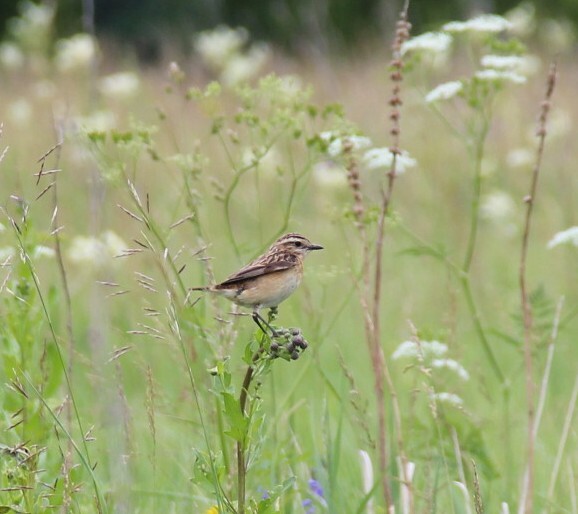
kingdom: Animalia
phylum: Chordata
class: Aves
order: Passeriformes
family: Muscicapidae
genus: Saxicola
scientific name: Saxicola rubetra
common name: Whinchat
